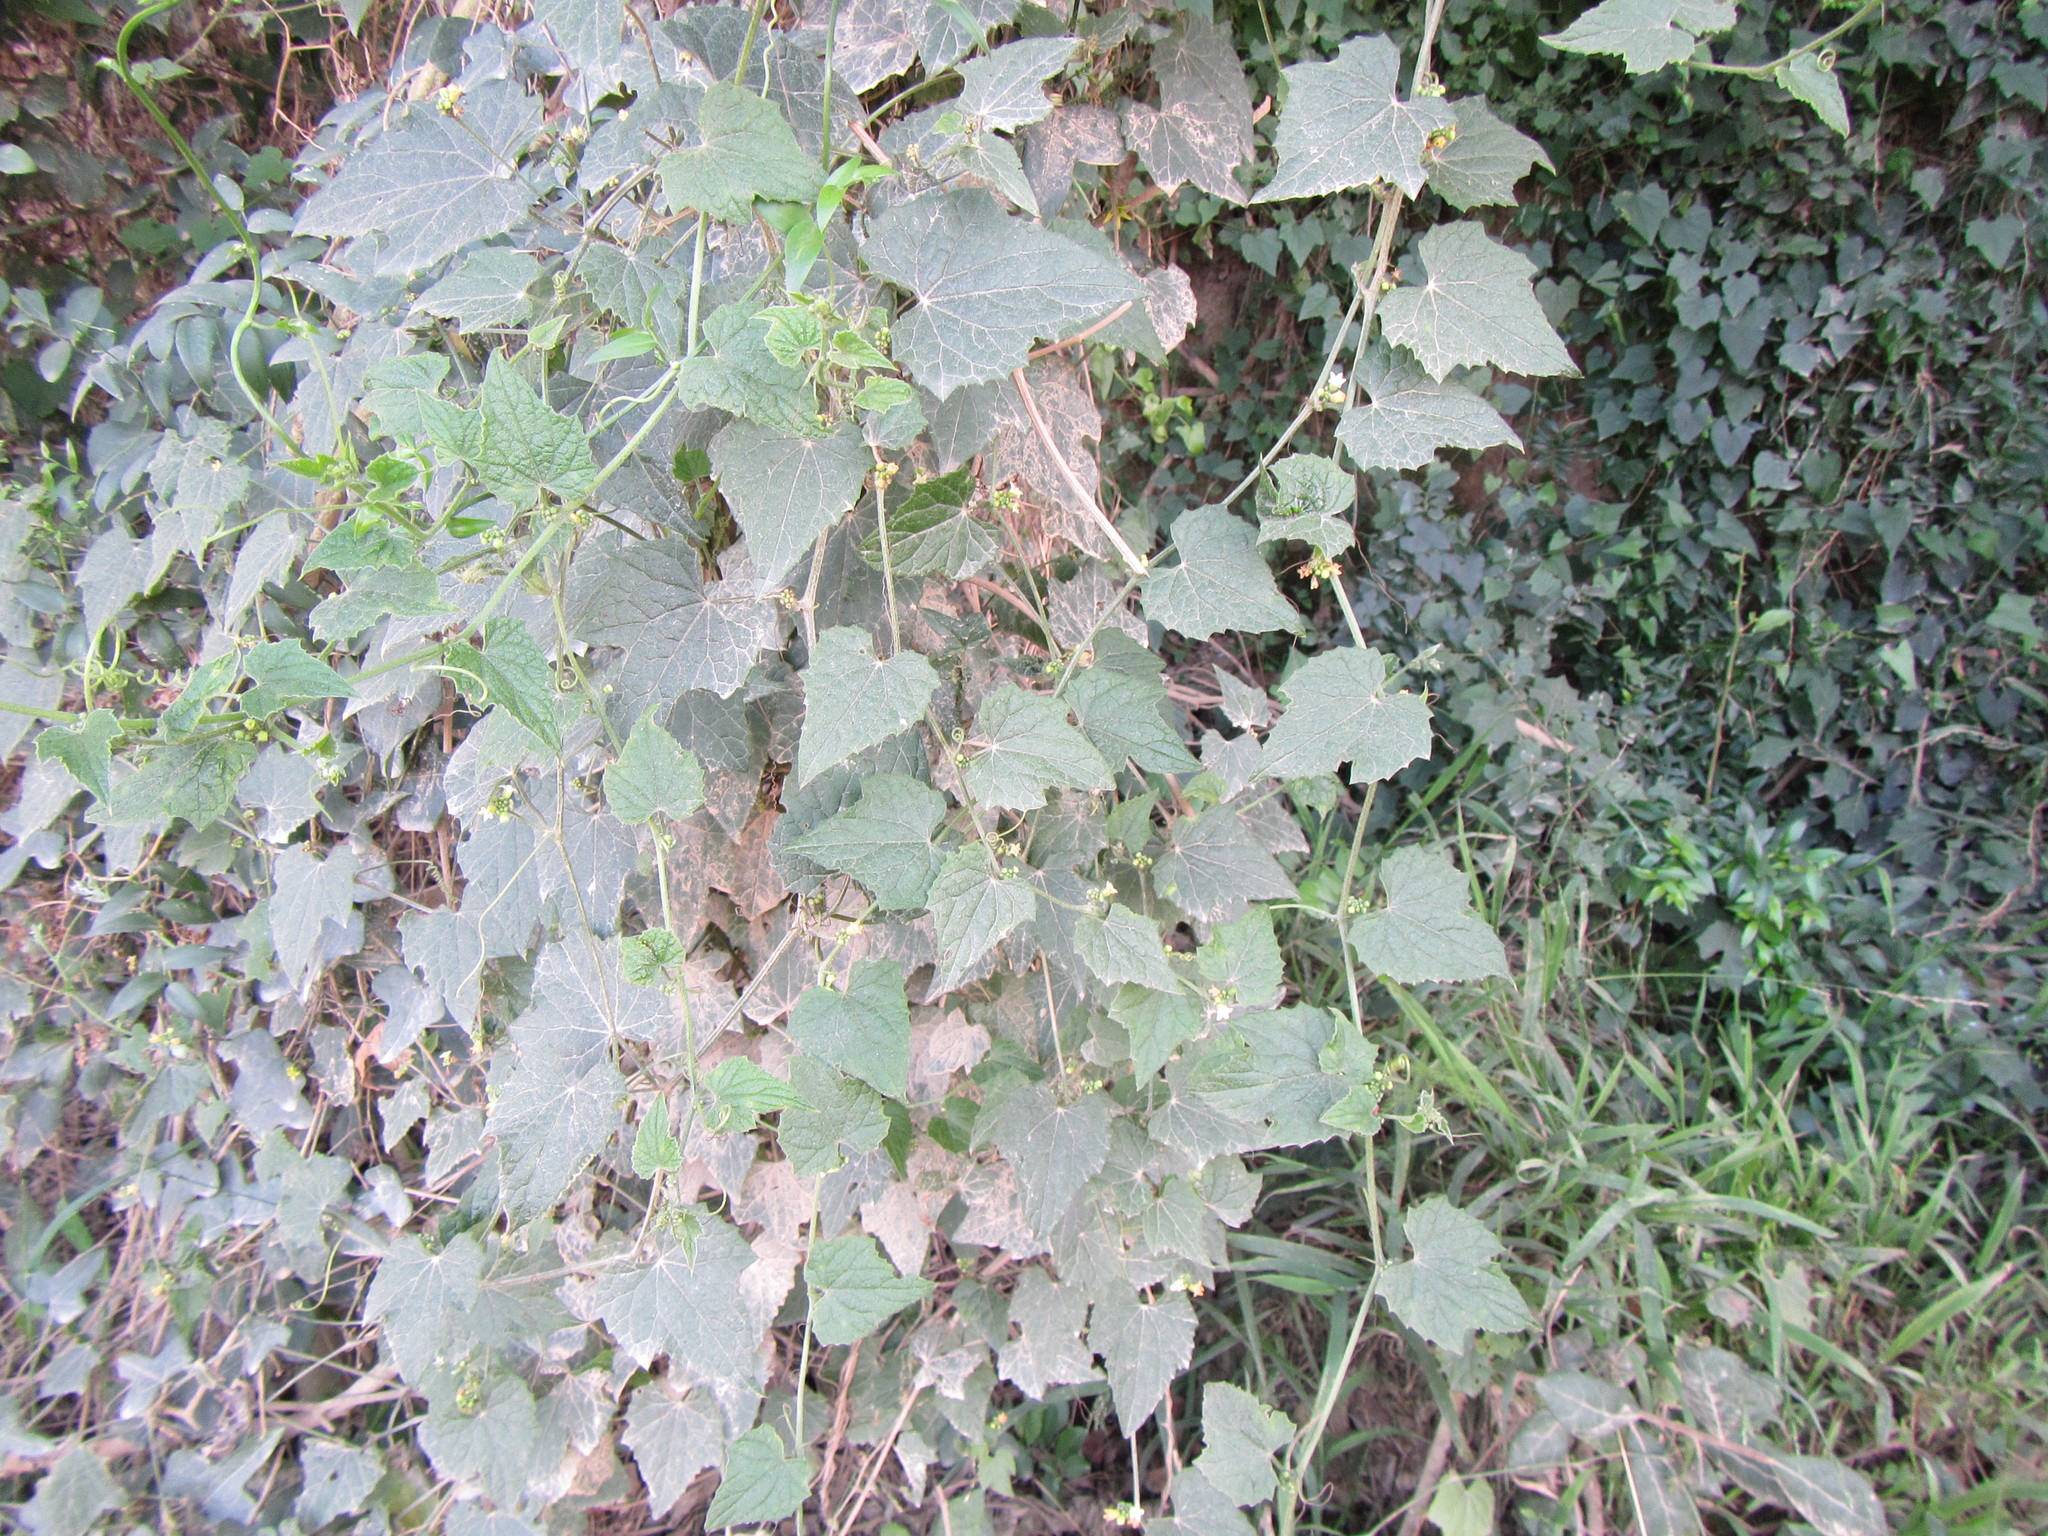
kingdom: Plantae
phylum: Tracheophyta
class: Magnoliopsida
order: Cucurbitales
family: Cucurbitaceae
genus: Zehneria
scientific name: Zehneria scabra
